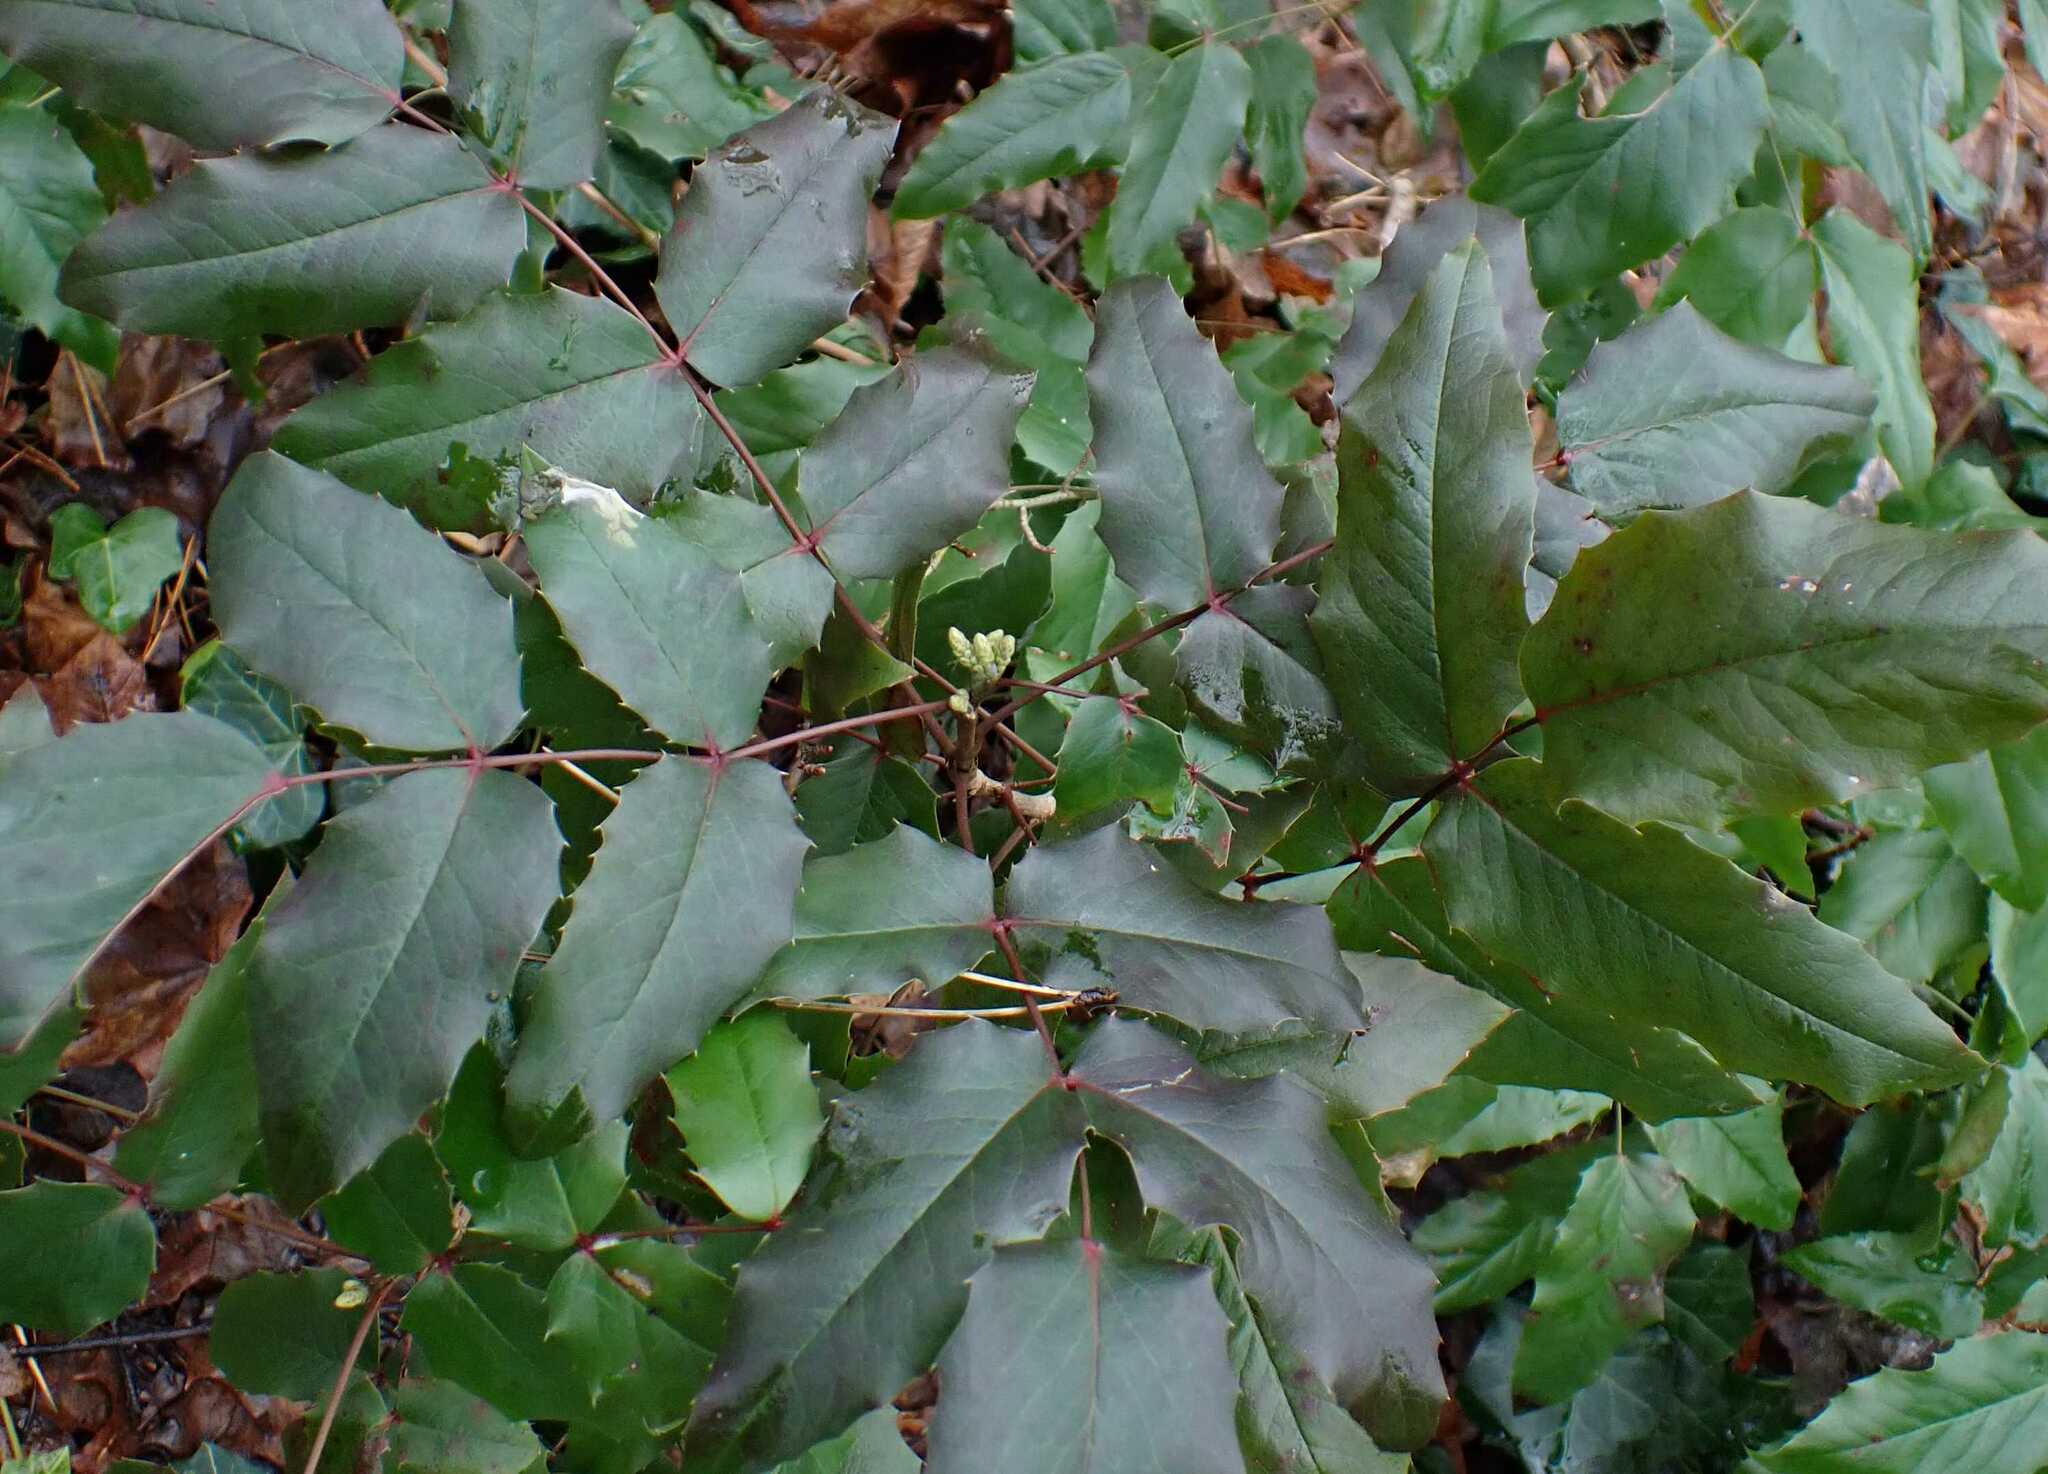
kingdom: Plantae
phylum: Tracheophyta
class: Magnoliopsida
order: Ranunculales
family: Berberidaceae
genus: Mahonia
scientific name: Mahonia aquifolium
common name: Oregon-grape
